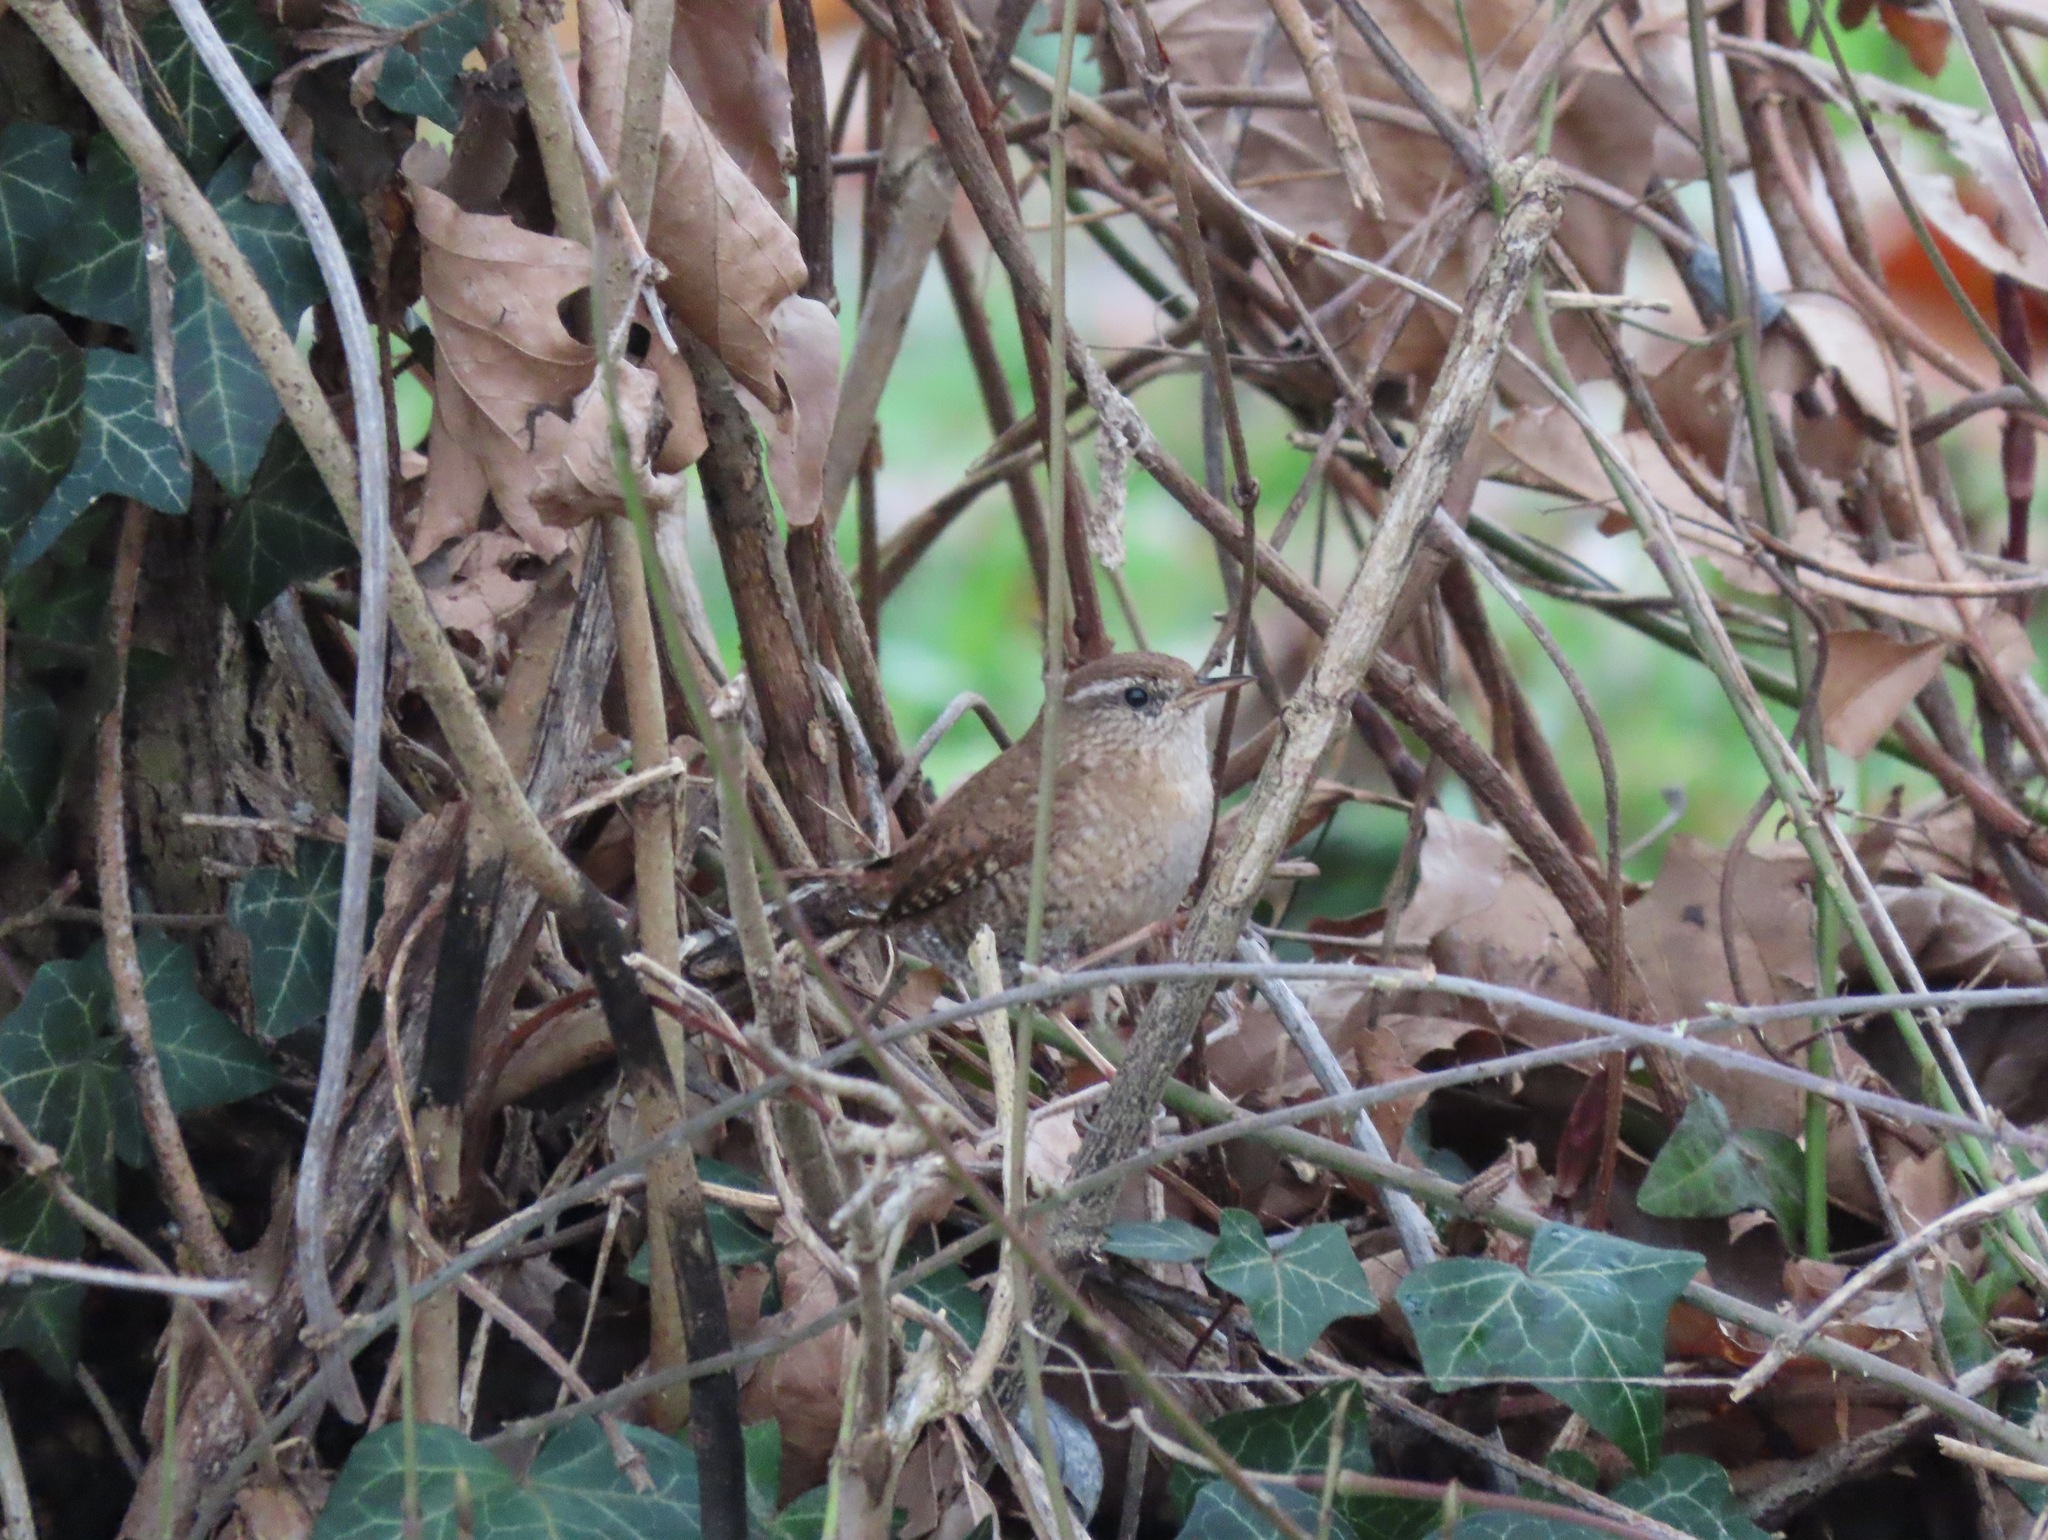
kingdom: Animalia
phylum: Chordata
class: Aves
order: Passeriformes
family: Troglodytidae
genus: Troglodytes
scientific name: Troglodytes troglodytes
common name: Eurasian wren
